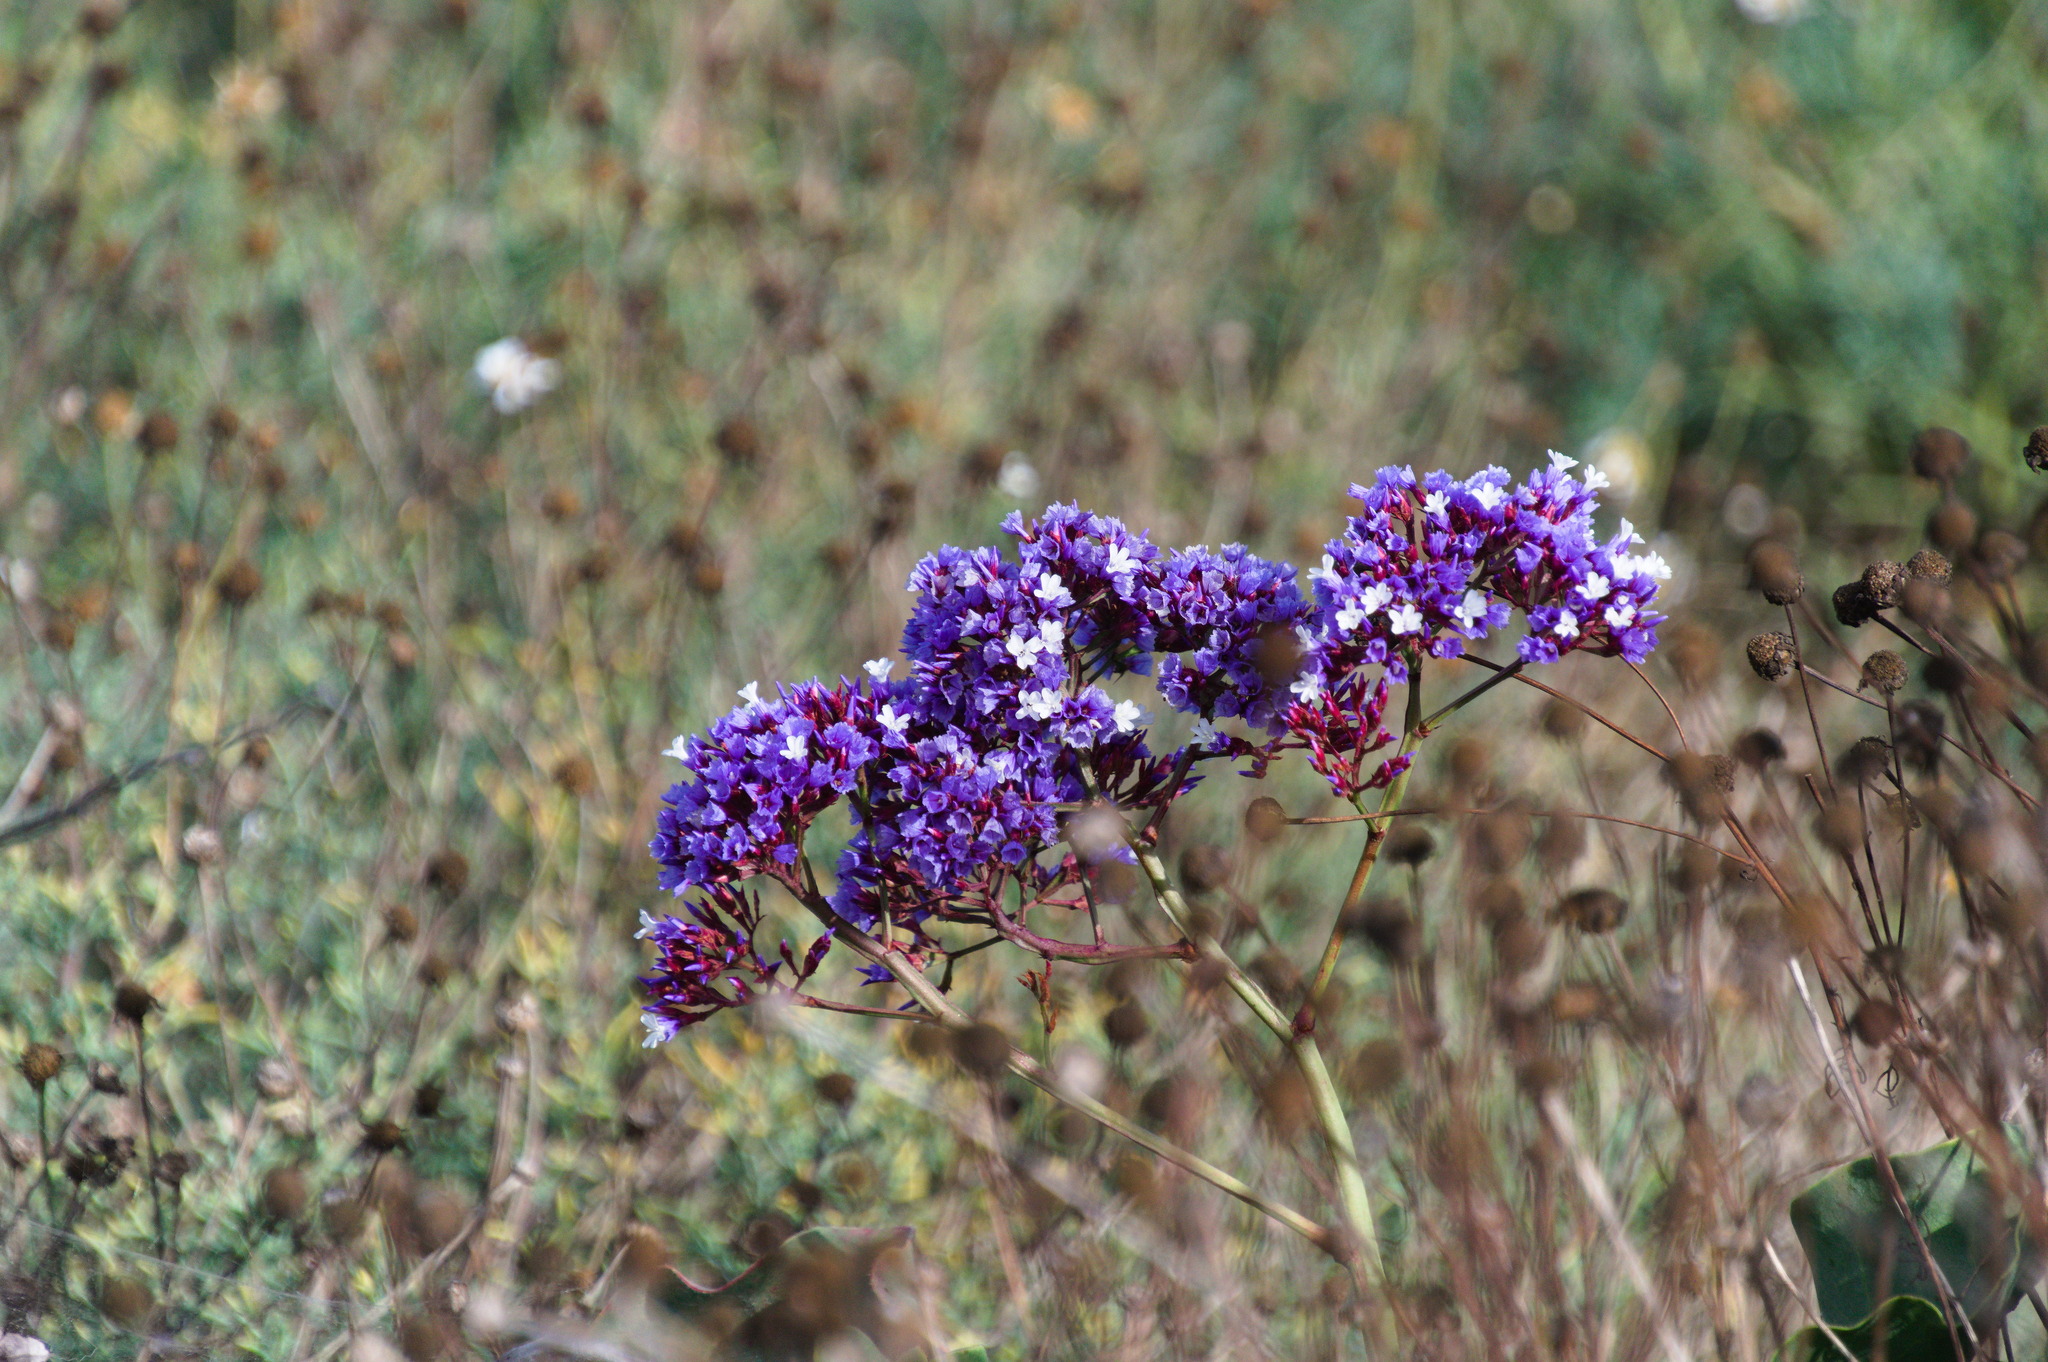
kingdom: Plantae
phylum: Tracheophyta
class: Magnoliopsida
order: Caryophyllales
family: Plumbaginaceae
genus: Limonium
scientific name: Limonium perezii
